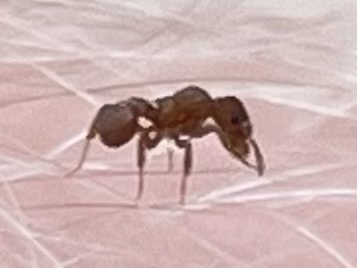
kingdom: Animalia
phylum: Arthropoda
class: Insecta
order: Hymenoptera
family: Formicidae
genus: Cyphomyrmex
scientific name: Cyphomyrmex wheeleri
